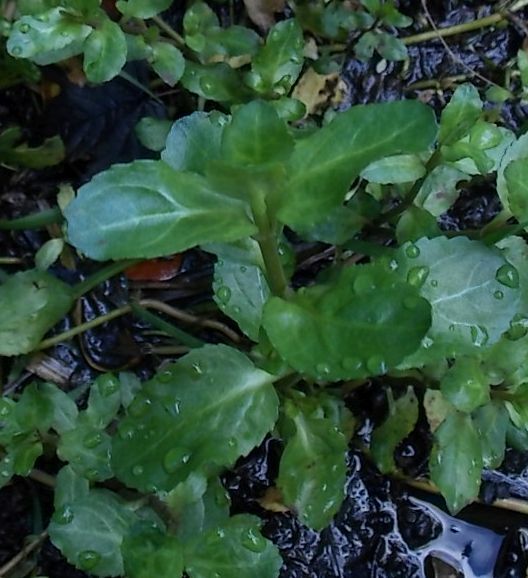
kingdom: Plantae
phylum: Tracheophyta
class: Magnoliopsida
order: Lamiales
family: Plantaginaceae
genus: Veronica
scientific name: Veronica beccabunga
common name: Brooklime
